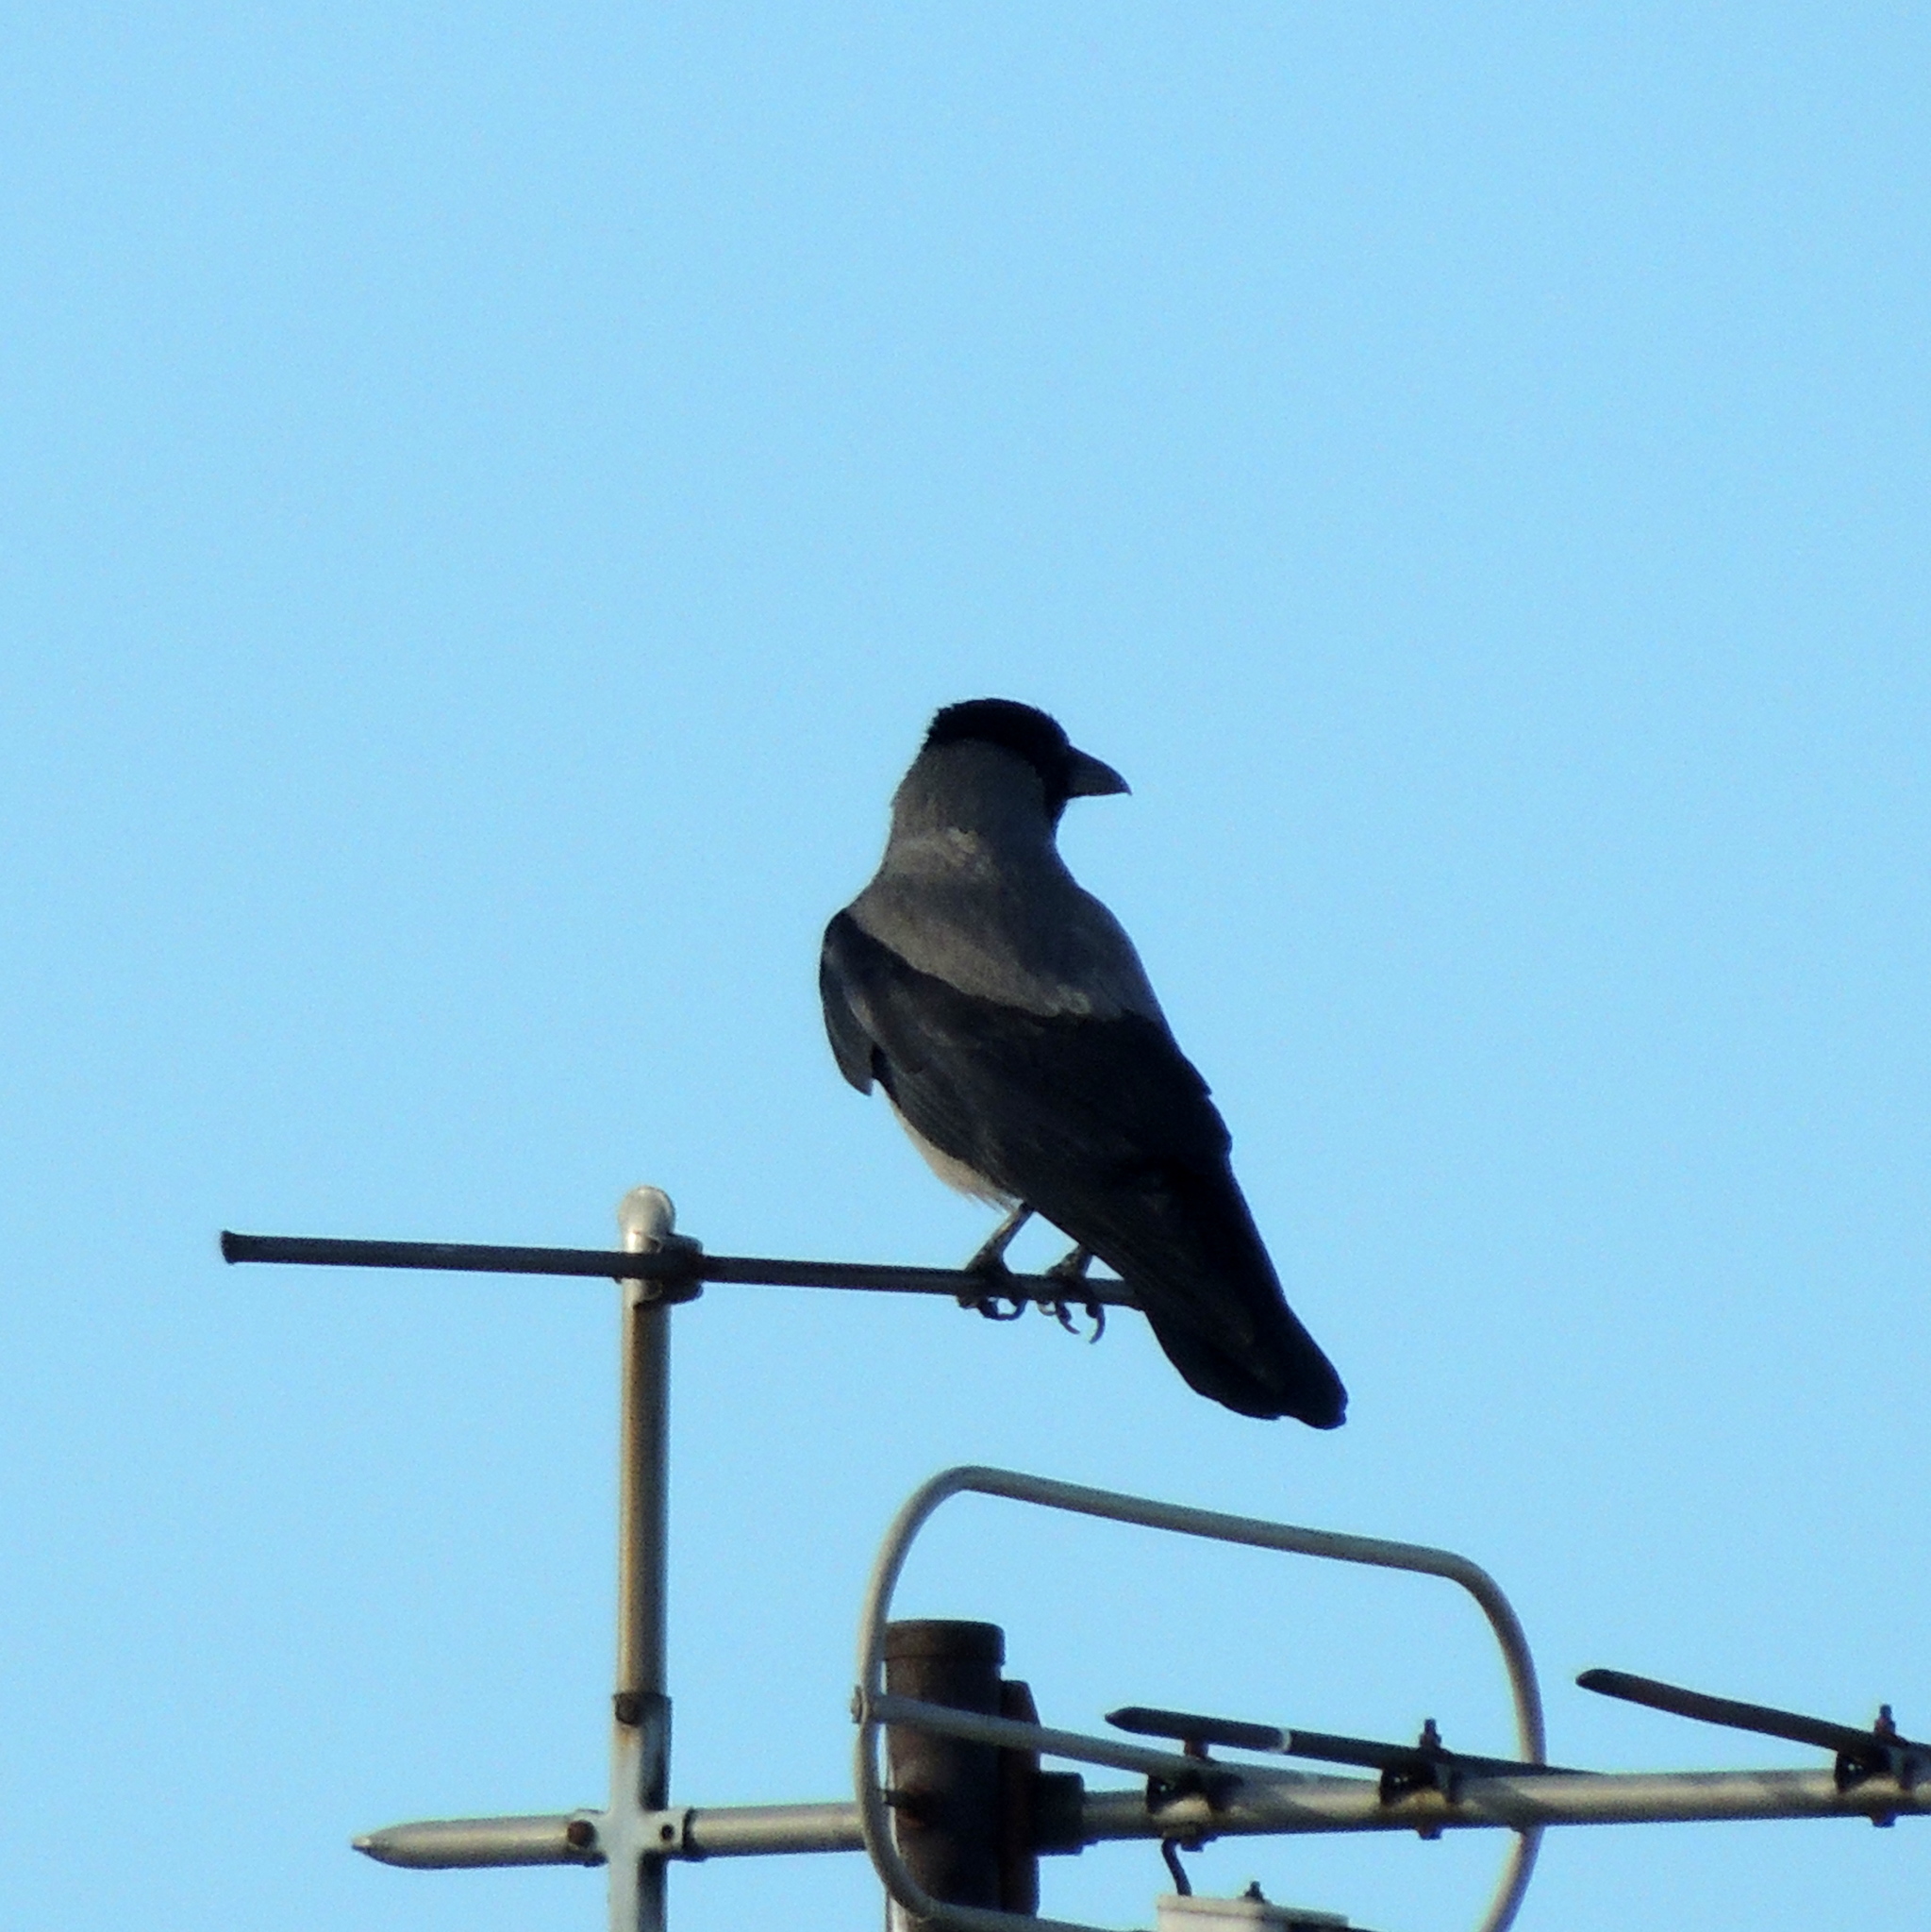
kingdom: Animalia
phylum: Chordata
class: Aves
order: Passeriformes
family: Corvidae
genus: Corvus
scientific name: Corvus cornix
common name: Hooded crow
